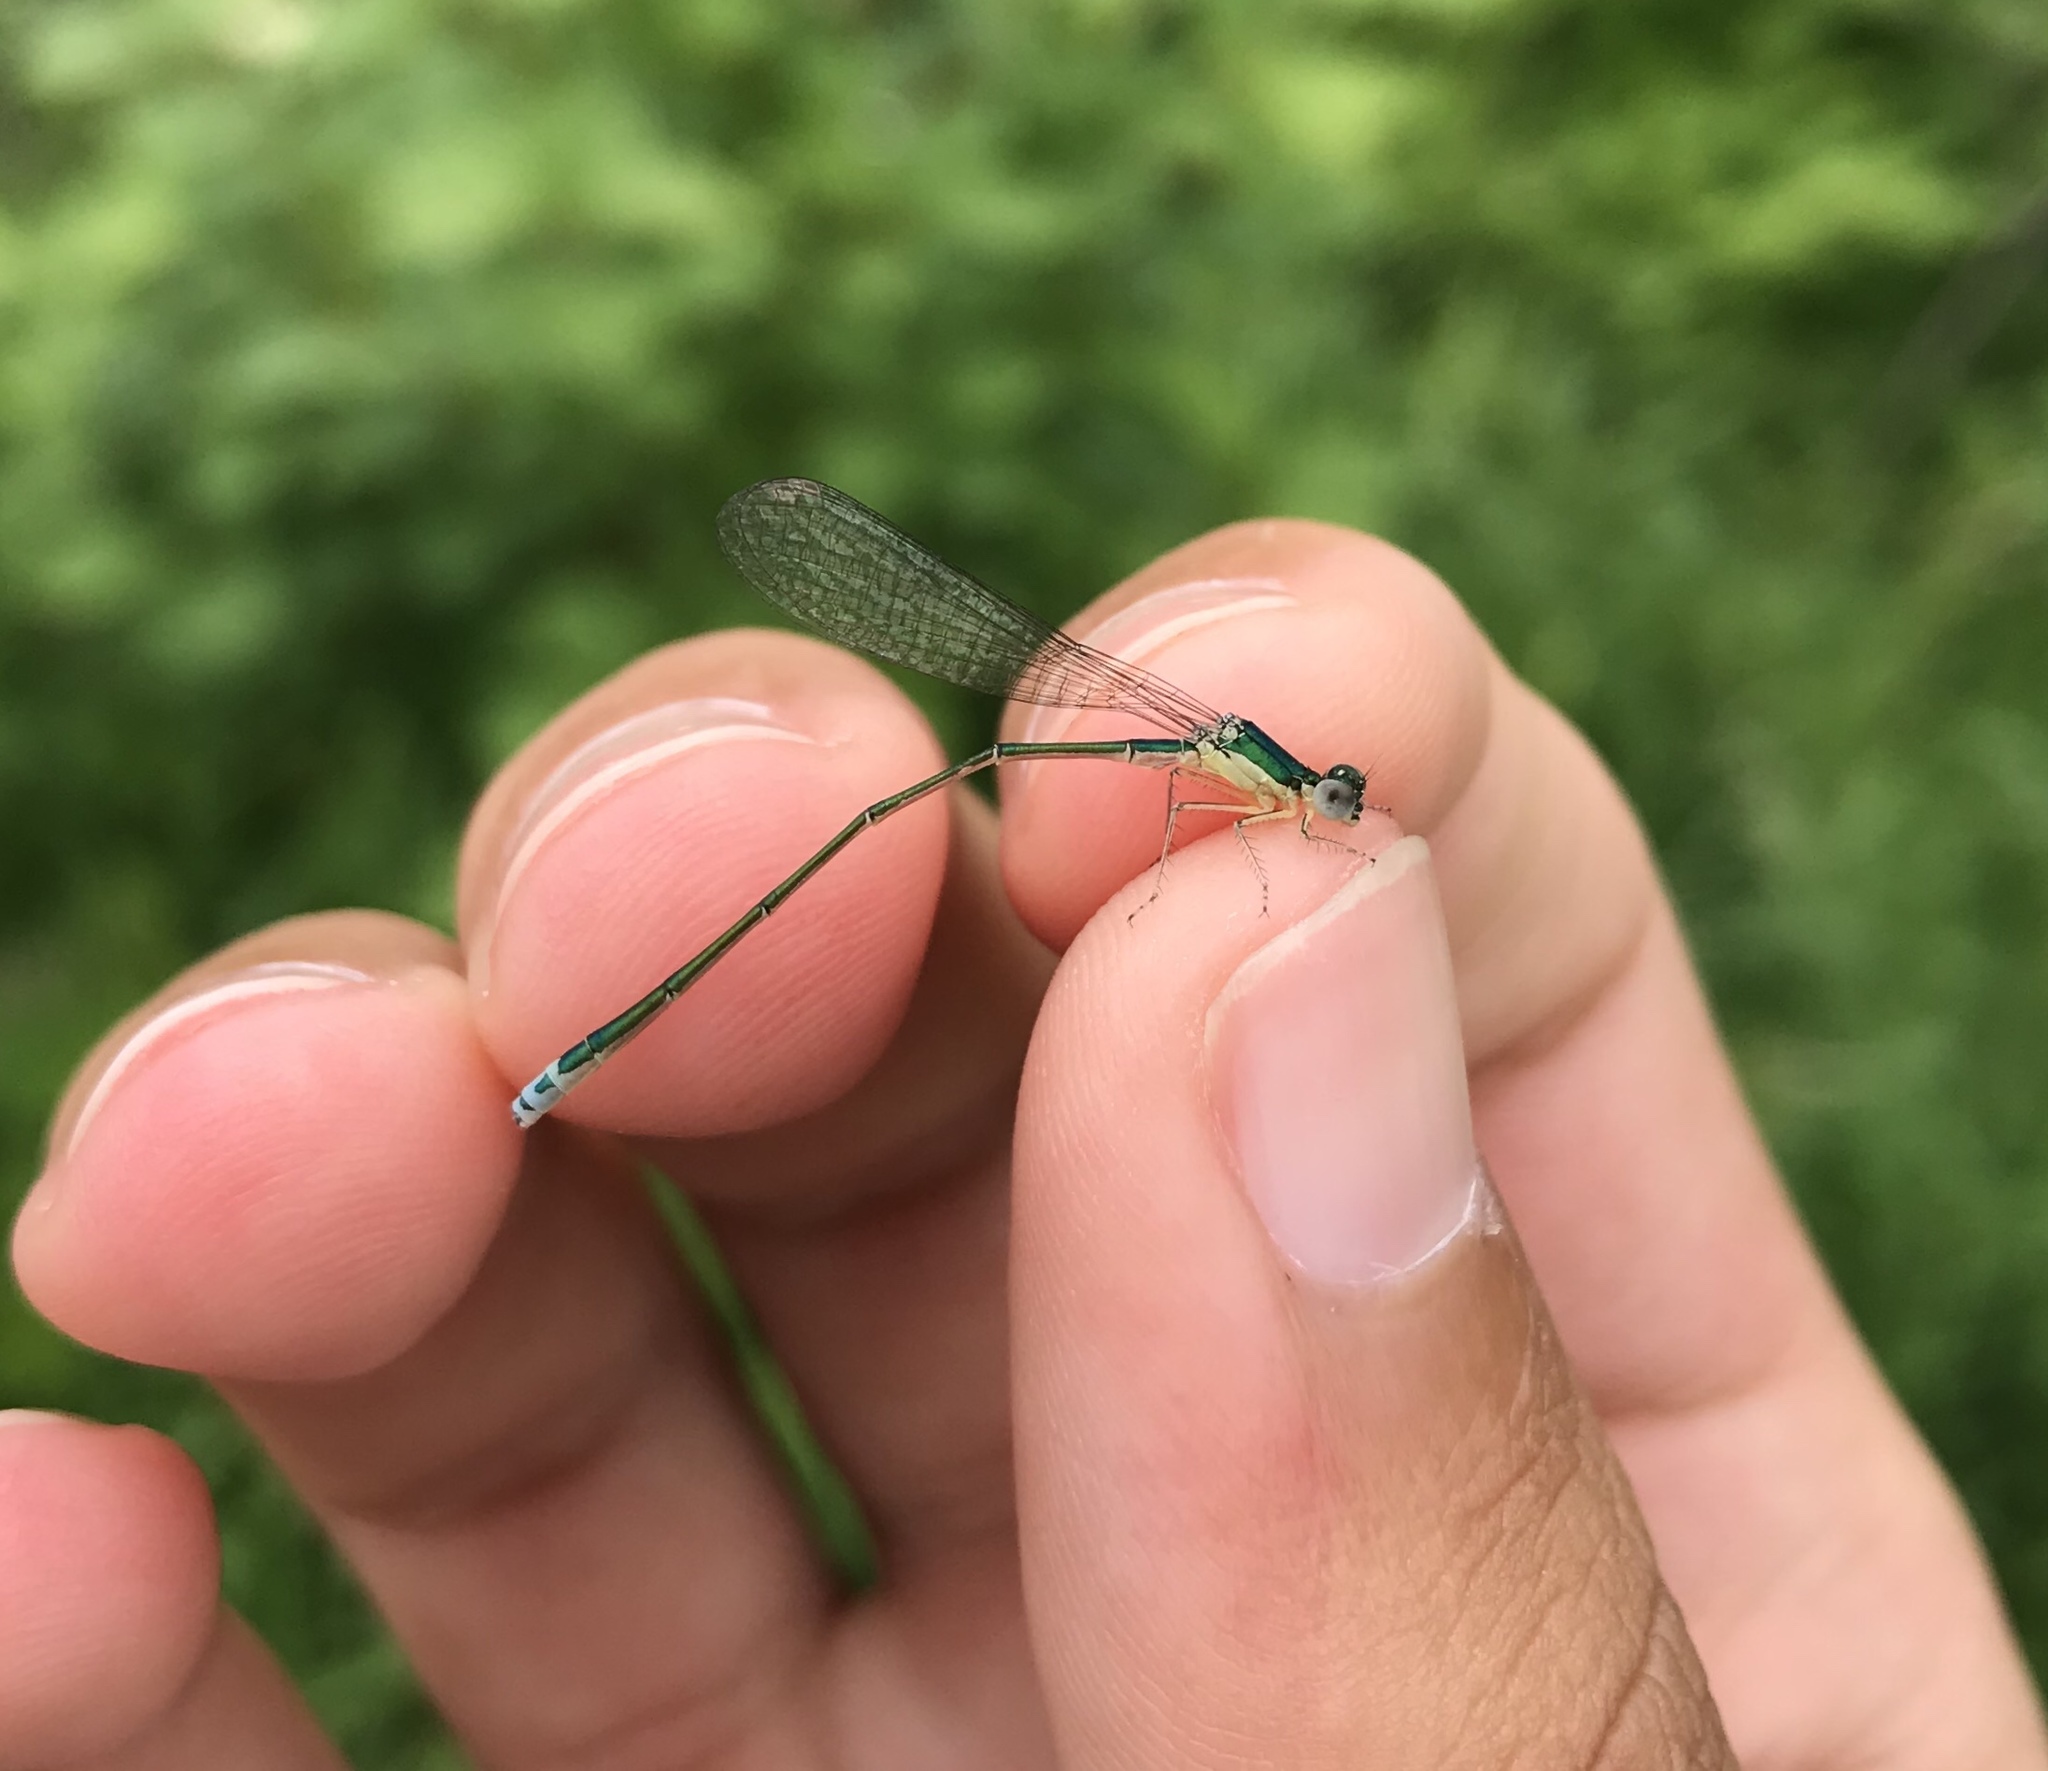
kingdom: Animalia
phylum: Arthropoda
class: Insecta
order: Odonata
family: Coenagrionidae
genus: Nehalennia
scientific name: Nehalennia irene
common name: Sedge sprite
